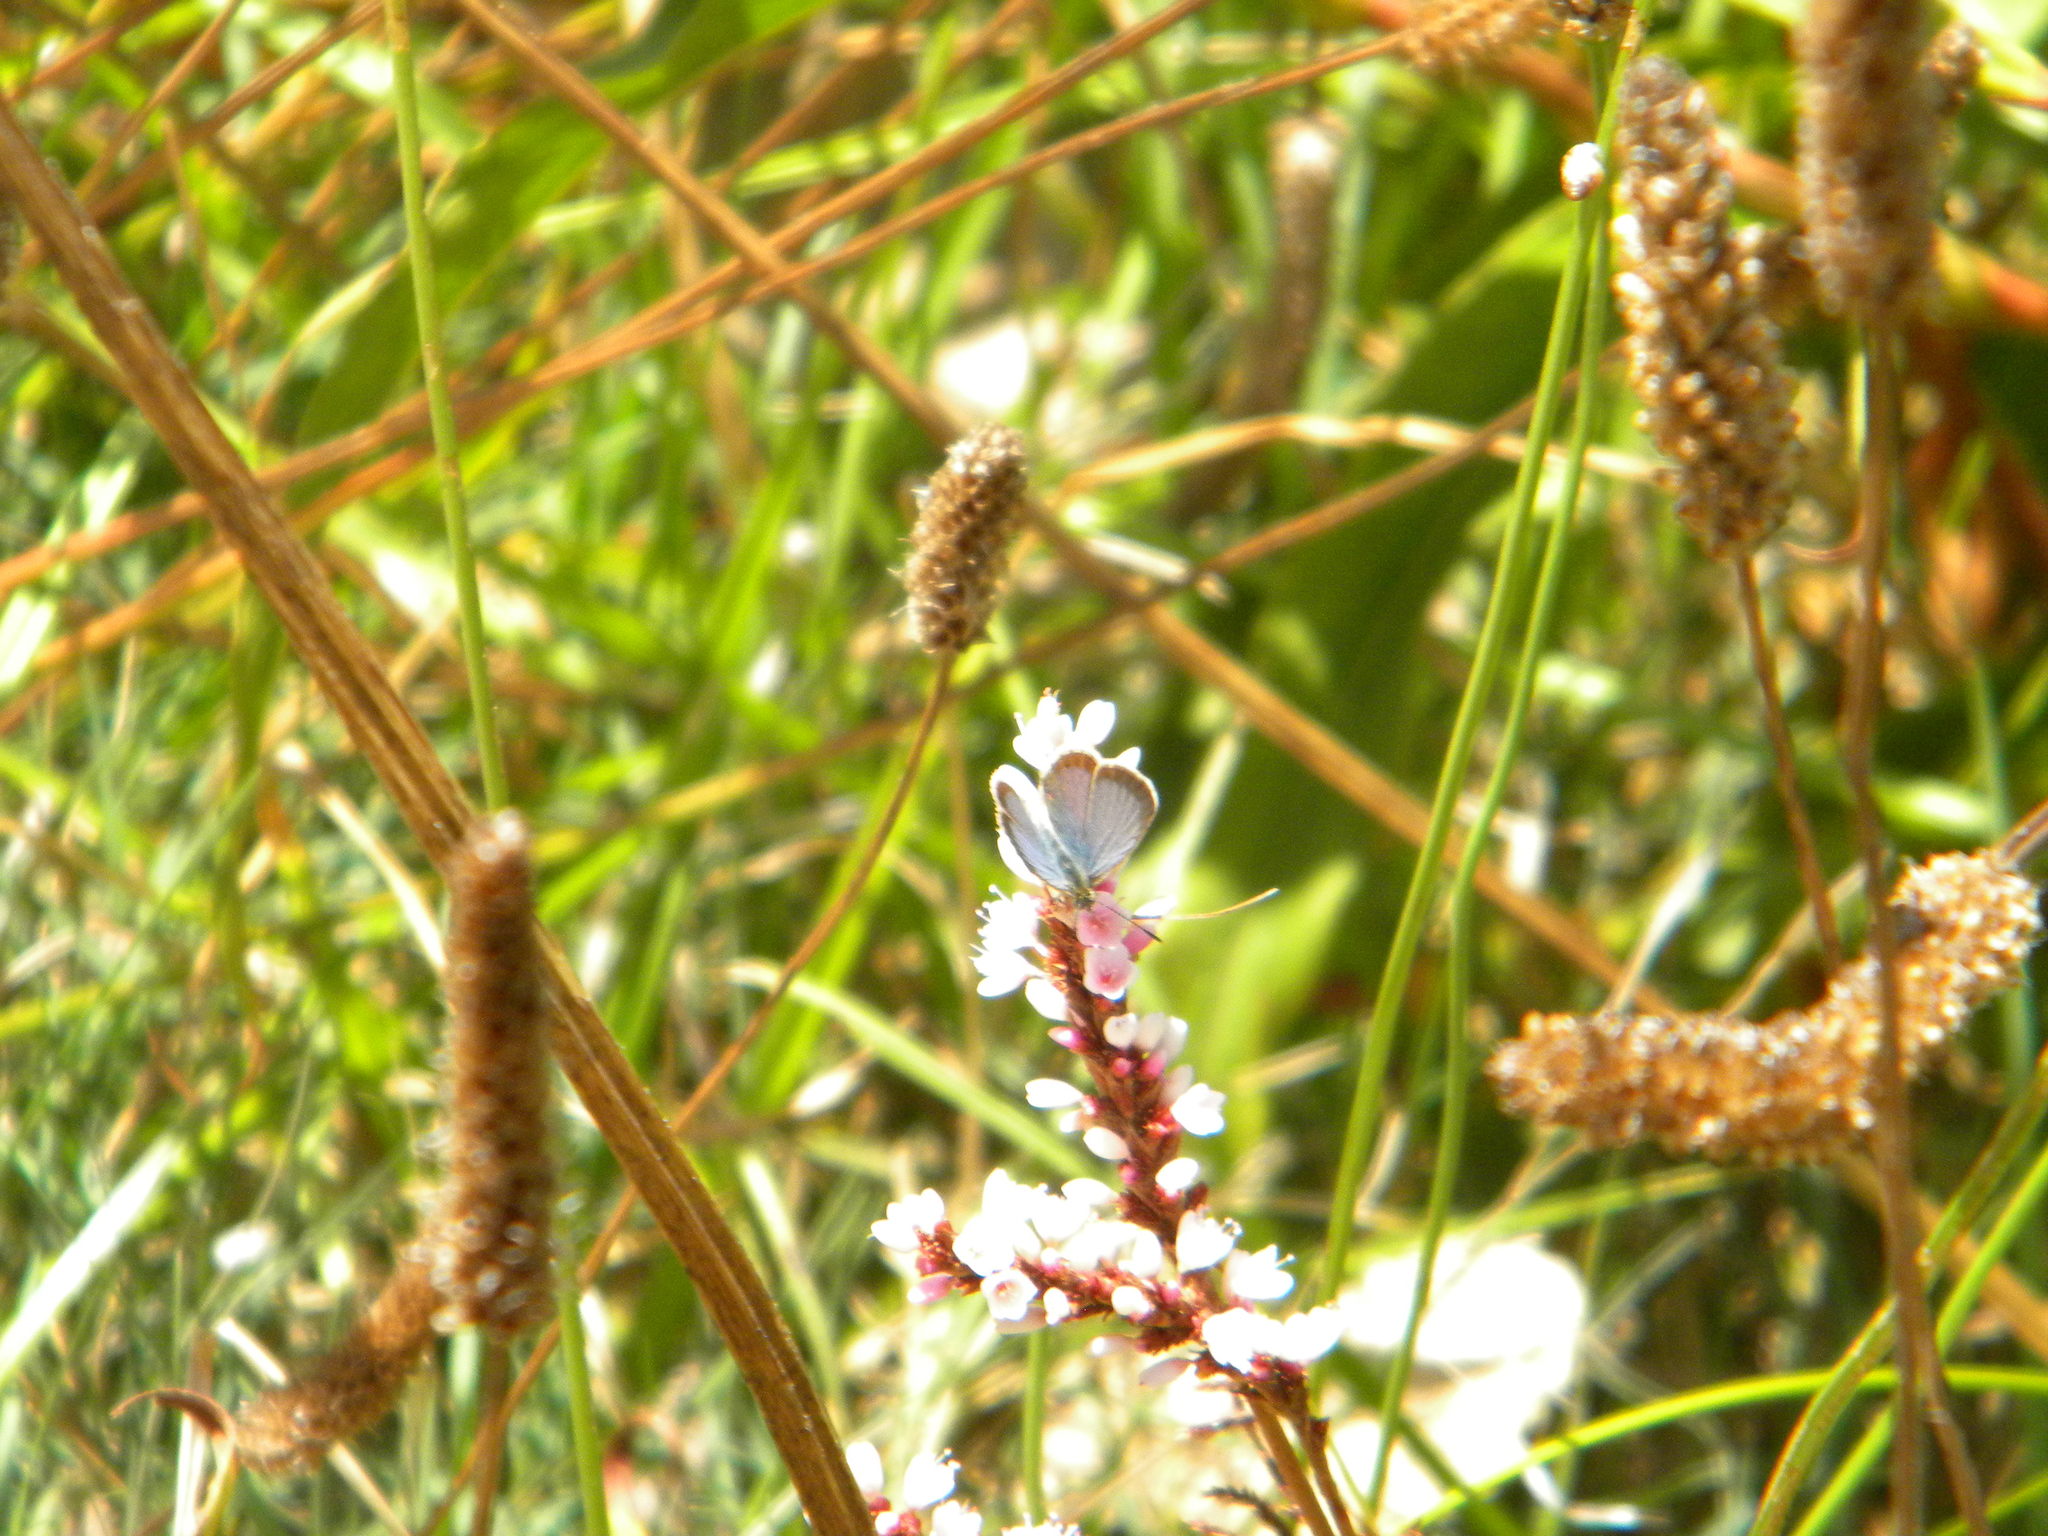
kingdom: Animalia
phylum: Arthropoda
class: Insecta
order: Lepidoptera
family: Lycaenidae
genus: Zizeeria
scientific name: Zizeeria knysna
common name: African grass blue
